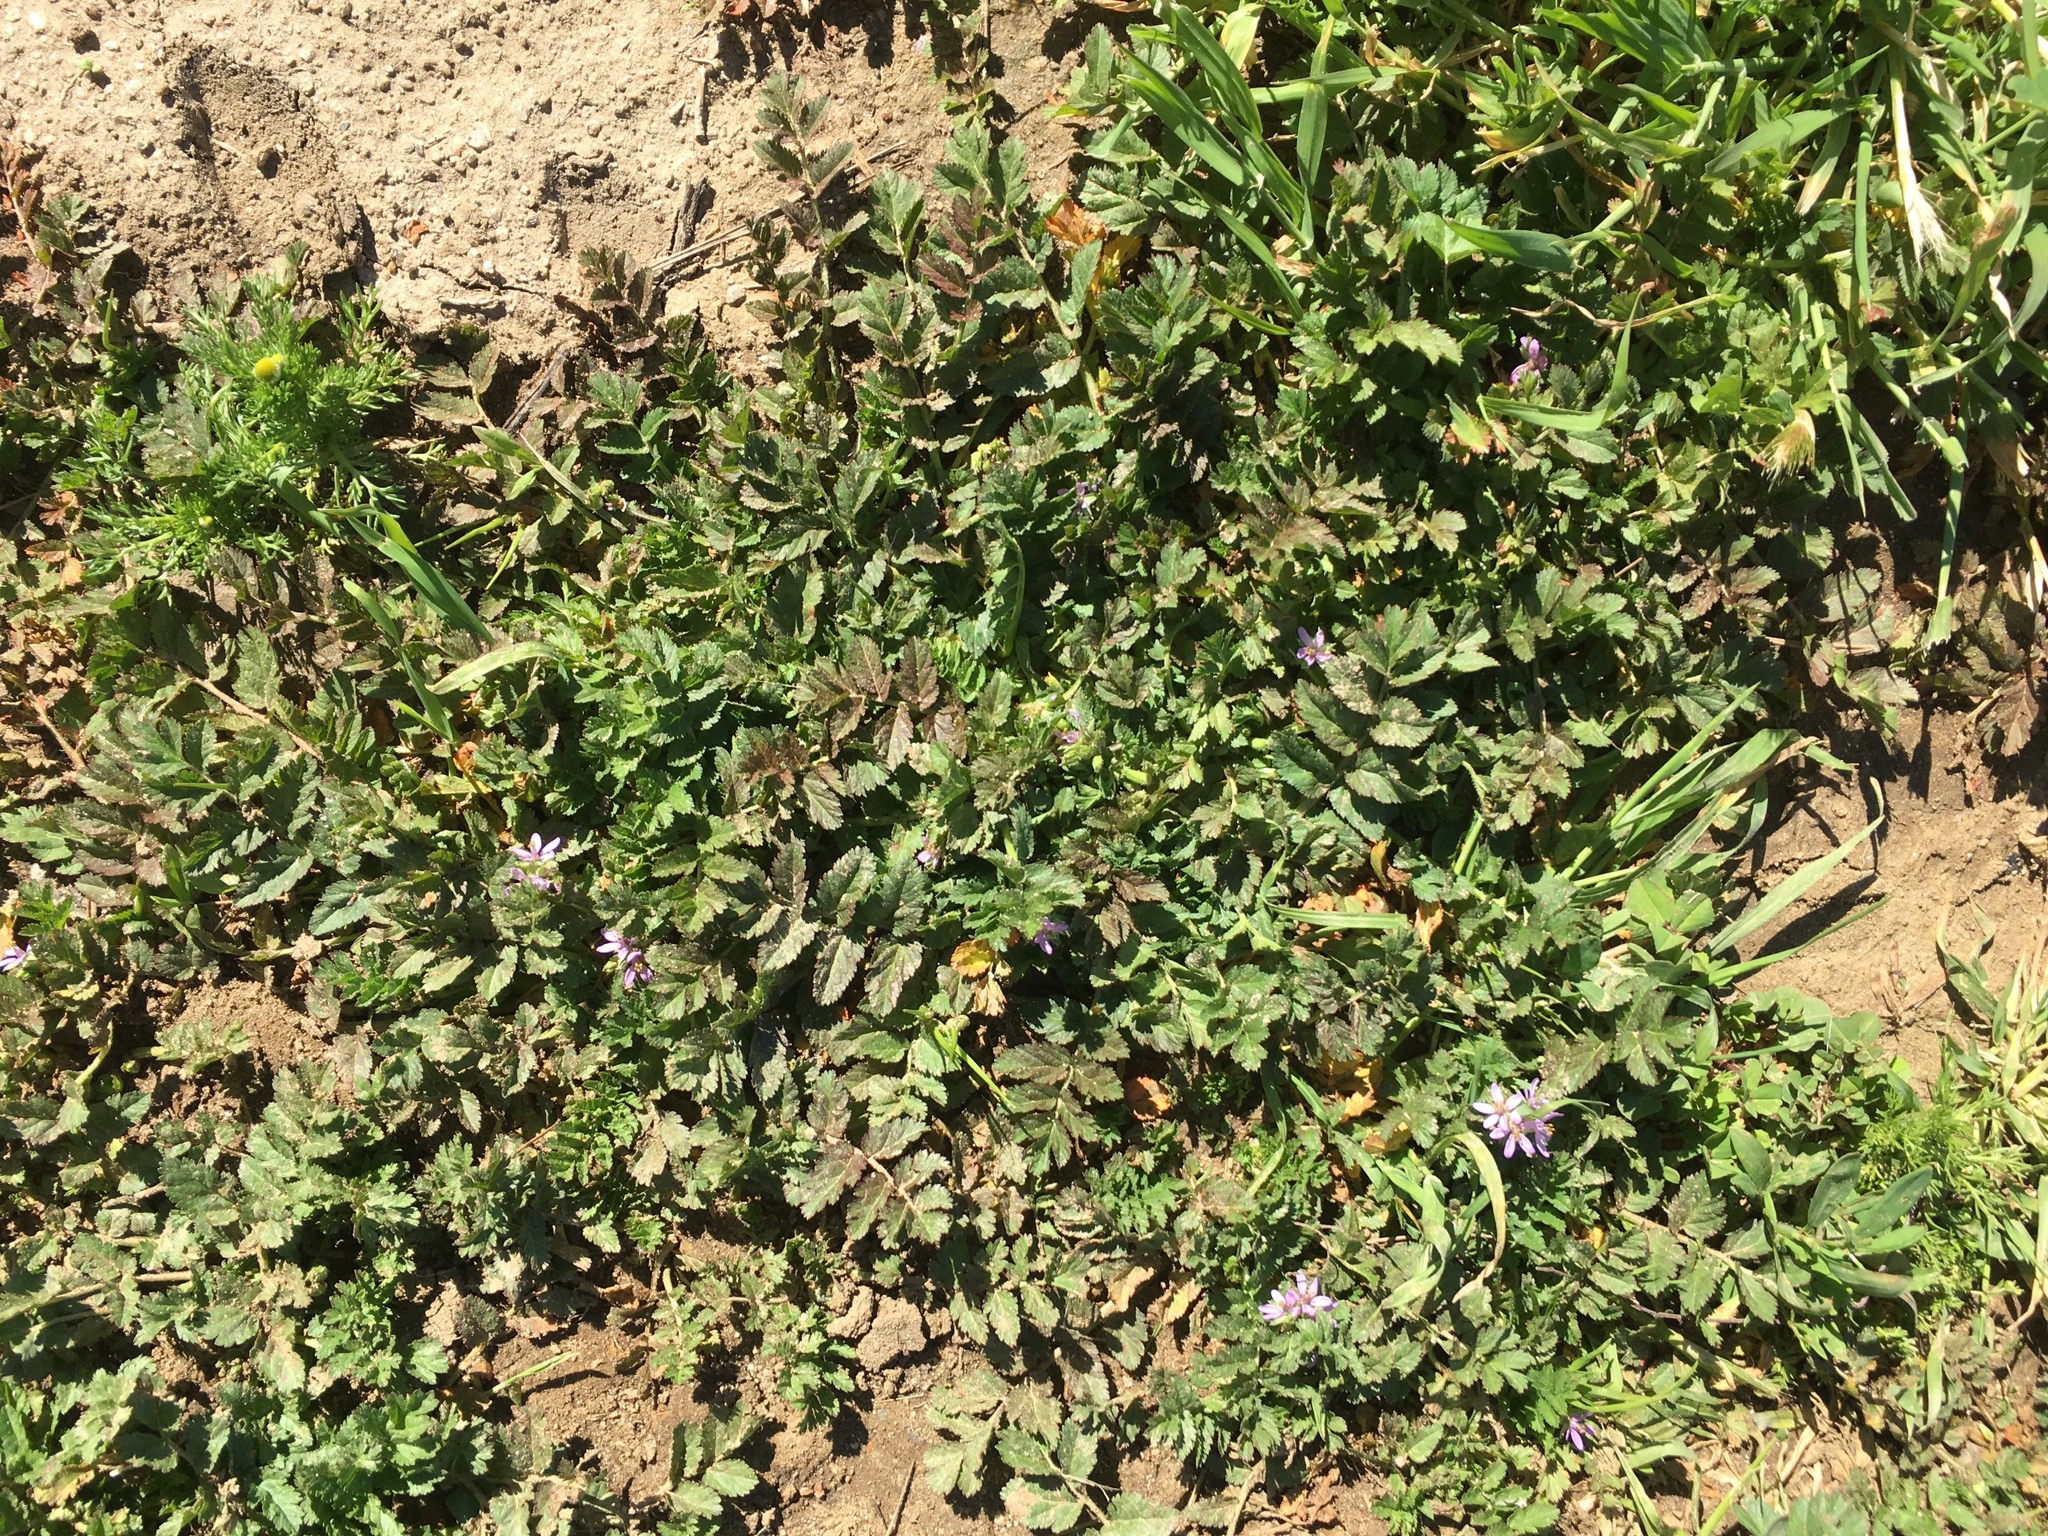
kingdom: Plantae
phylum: Tracheophyta
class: Magnoliopsida
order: Geraniales
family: Geraniaceae
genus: Erodium
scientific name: Erodium moschatum
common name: Musk stork's-bill
